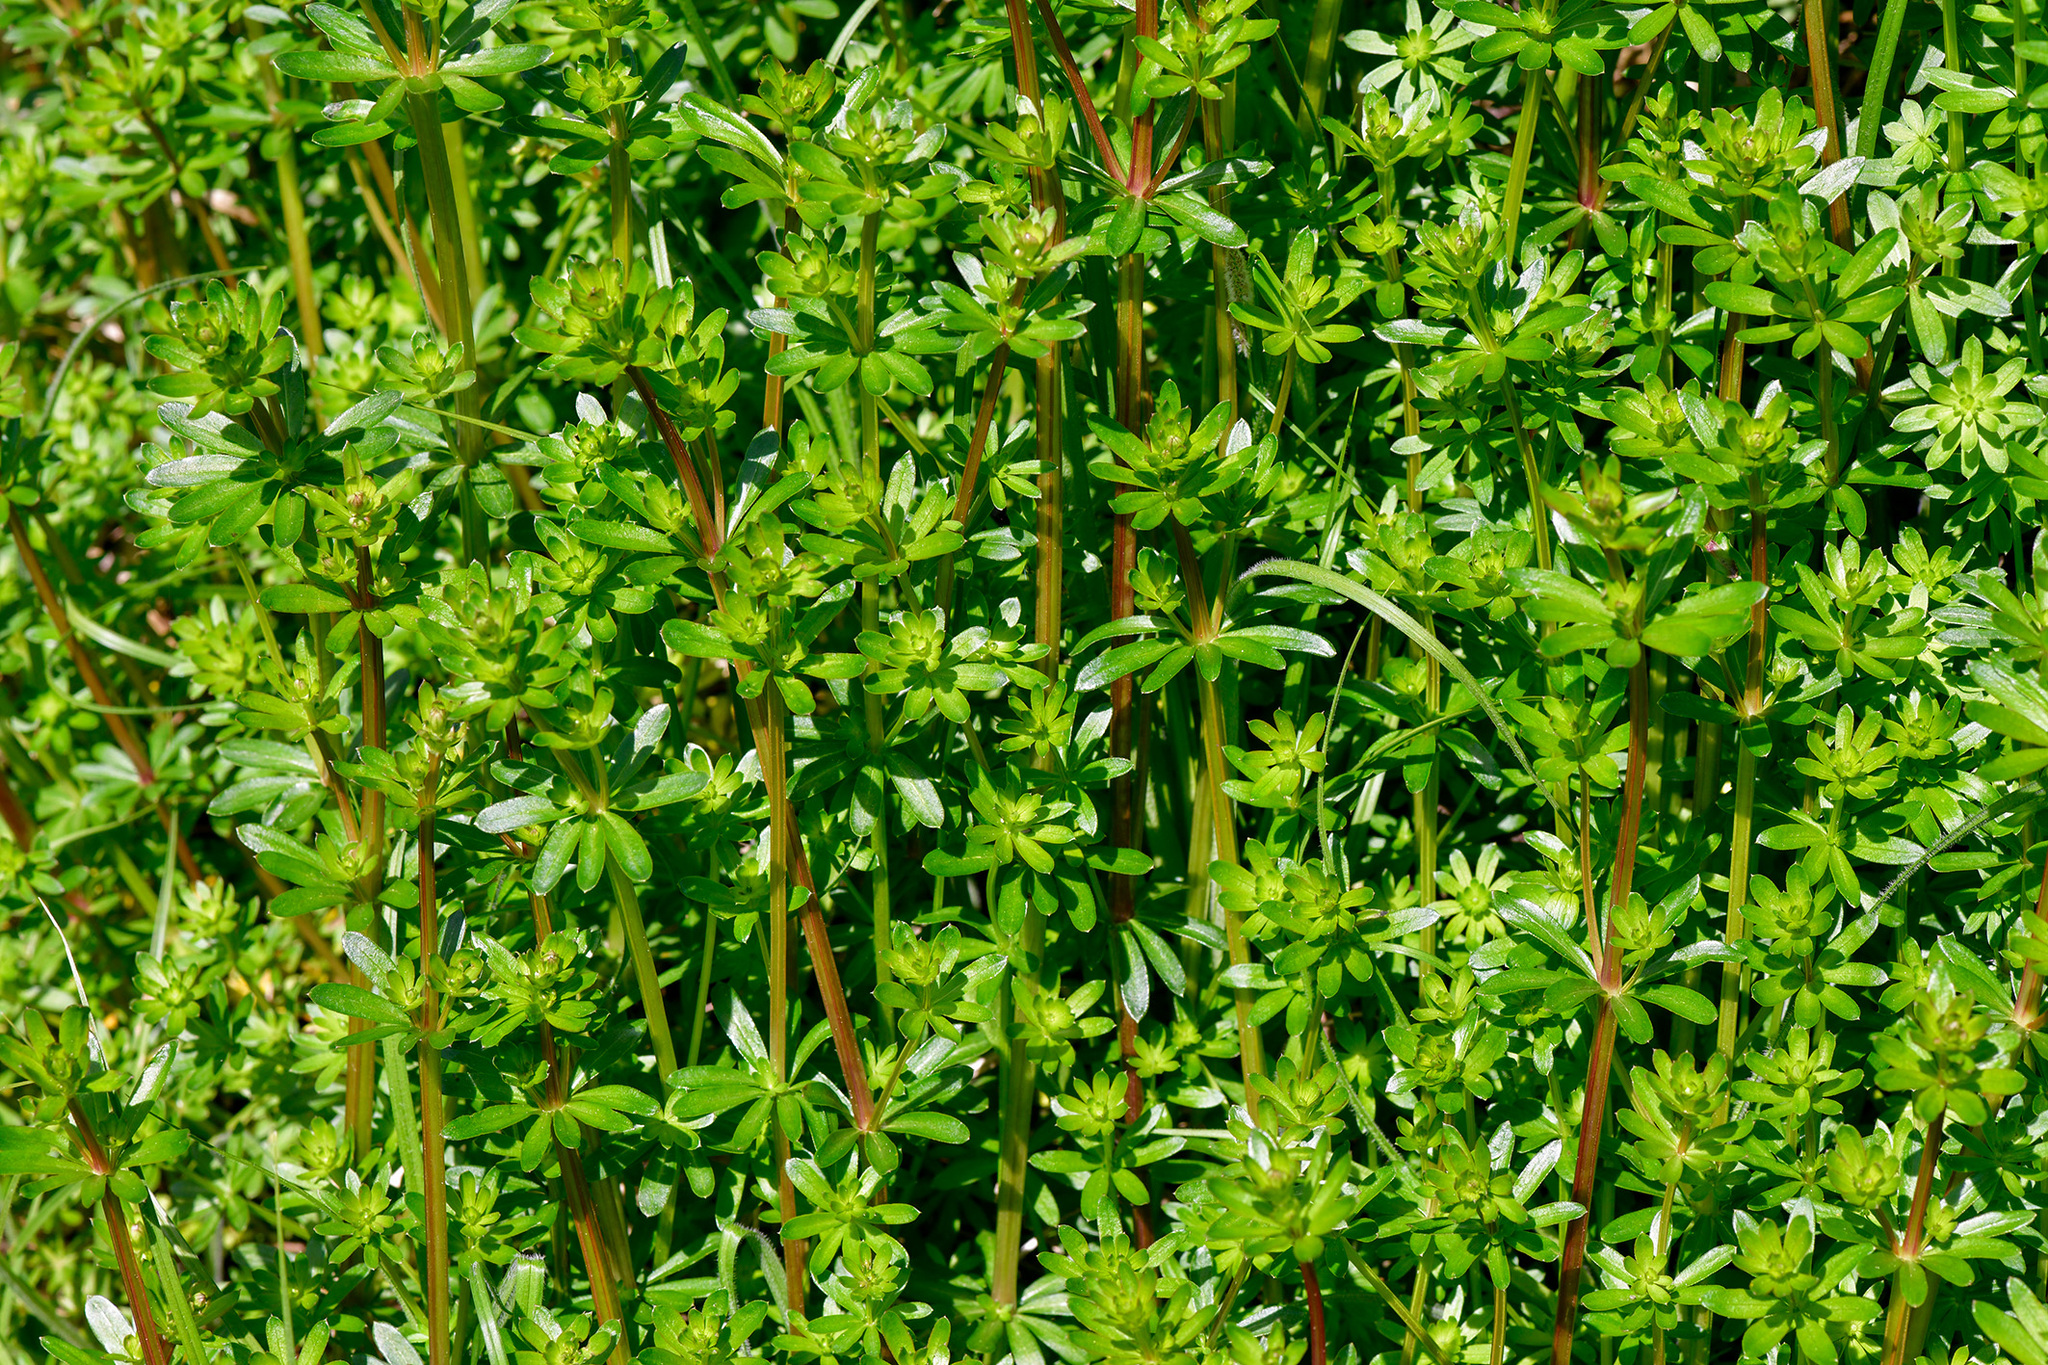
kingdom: Plantae
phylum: Tracheophyta
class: Magnoliopsida
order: Gentianales
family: Rubiaceae
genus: Galium
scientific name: Galium album
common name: White bedstraw
